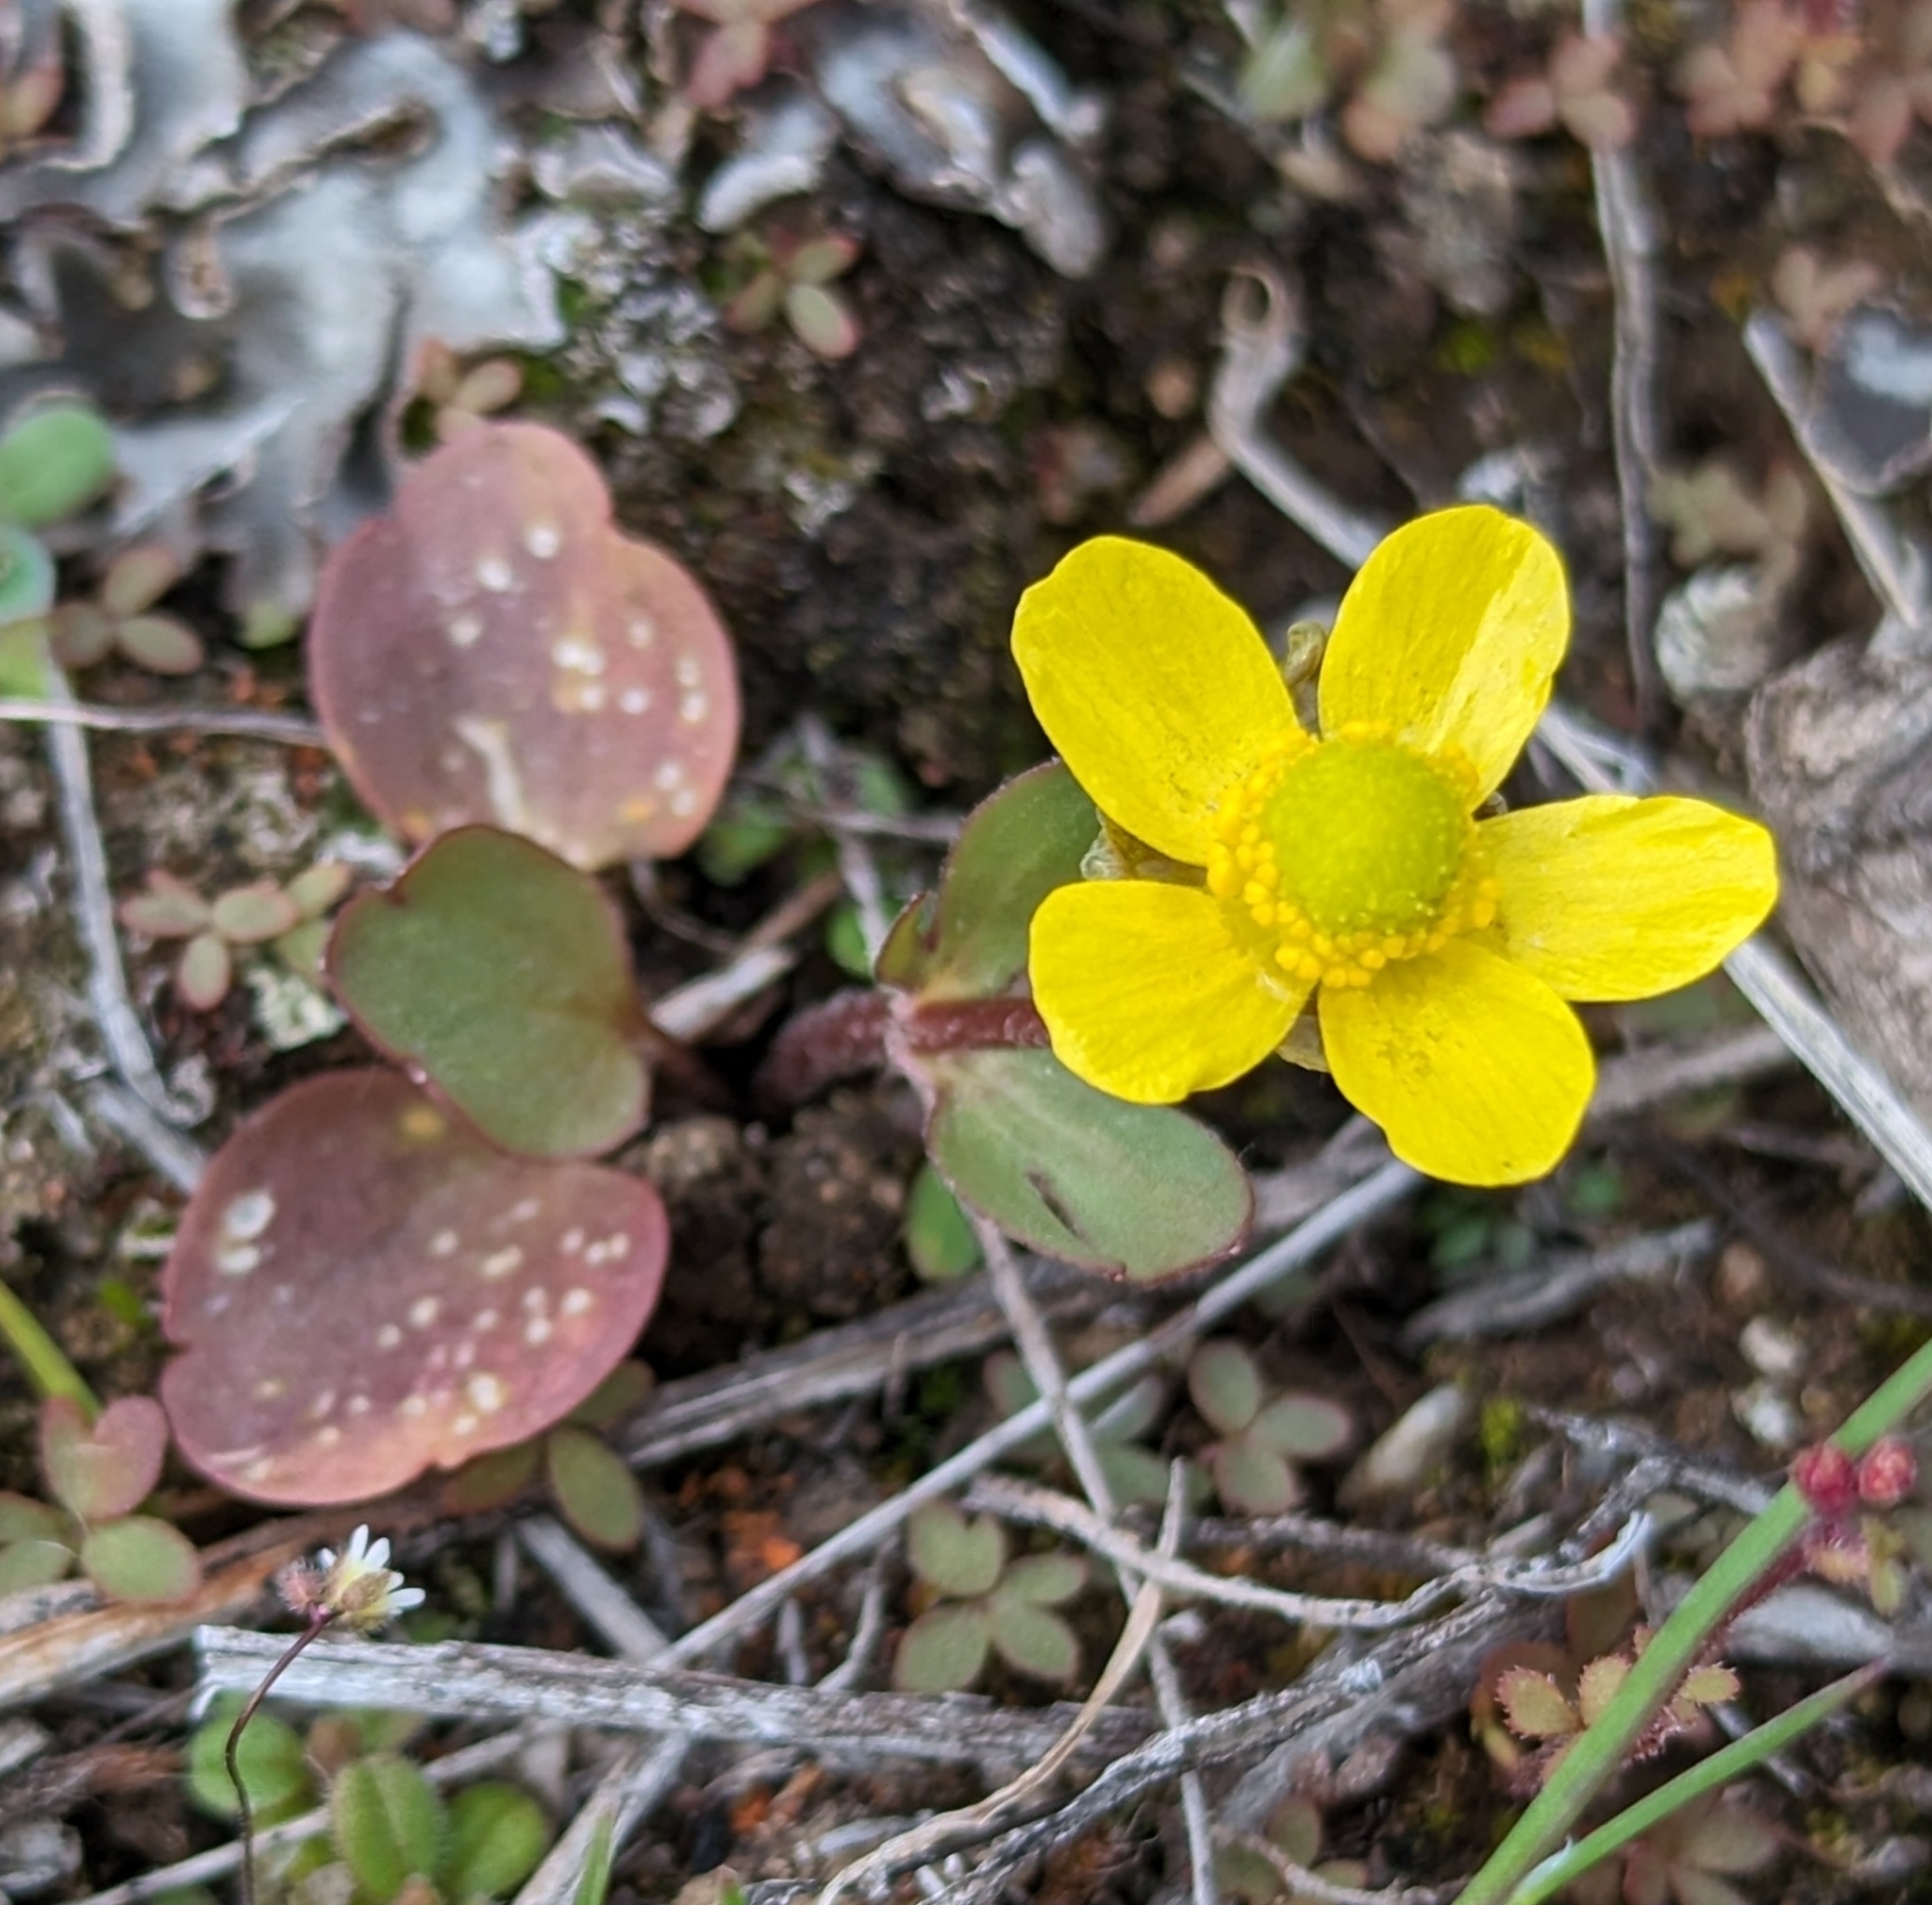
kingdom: Plantae
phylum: Tracheophyta
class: Magnoliopsida
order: Ranunculales
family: Ranunculaceae
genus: Ranunculus
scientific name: Ranunculus glaberrimus
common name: Sagebrush buttercup
